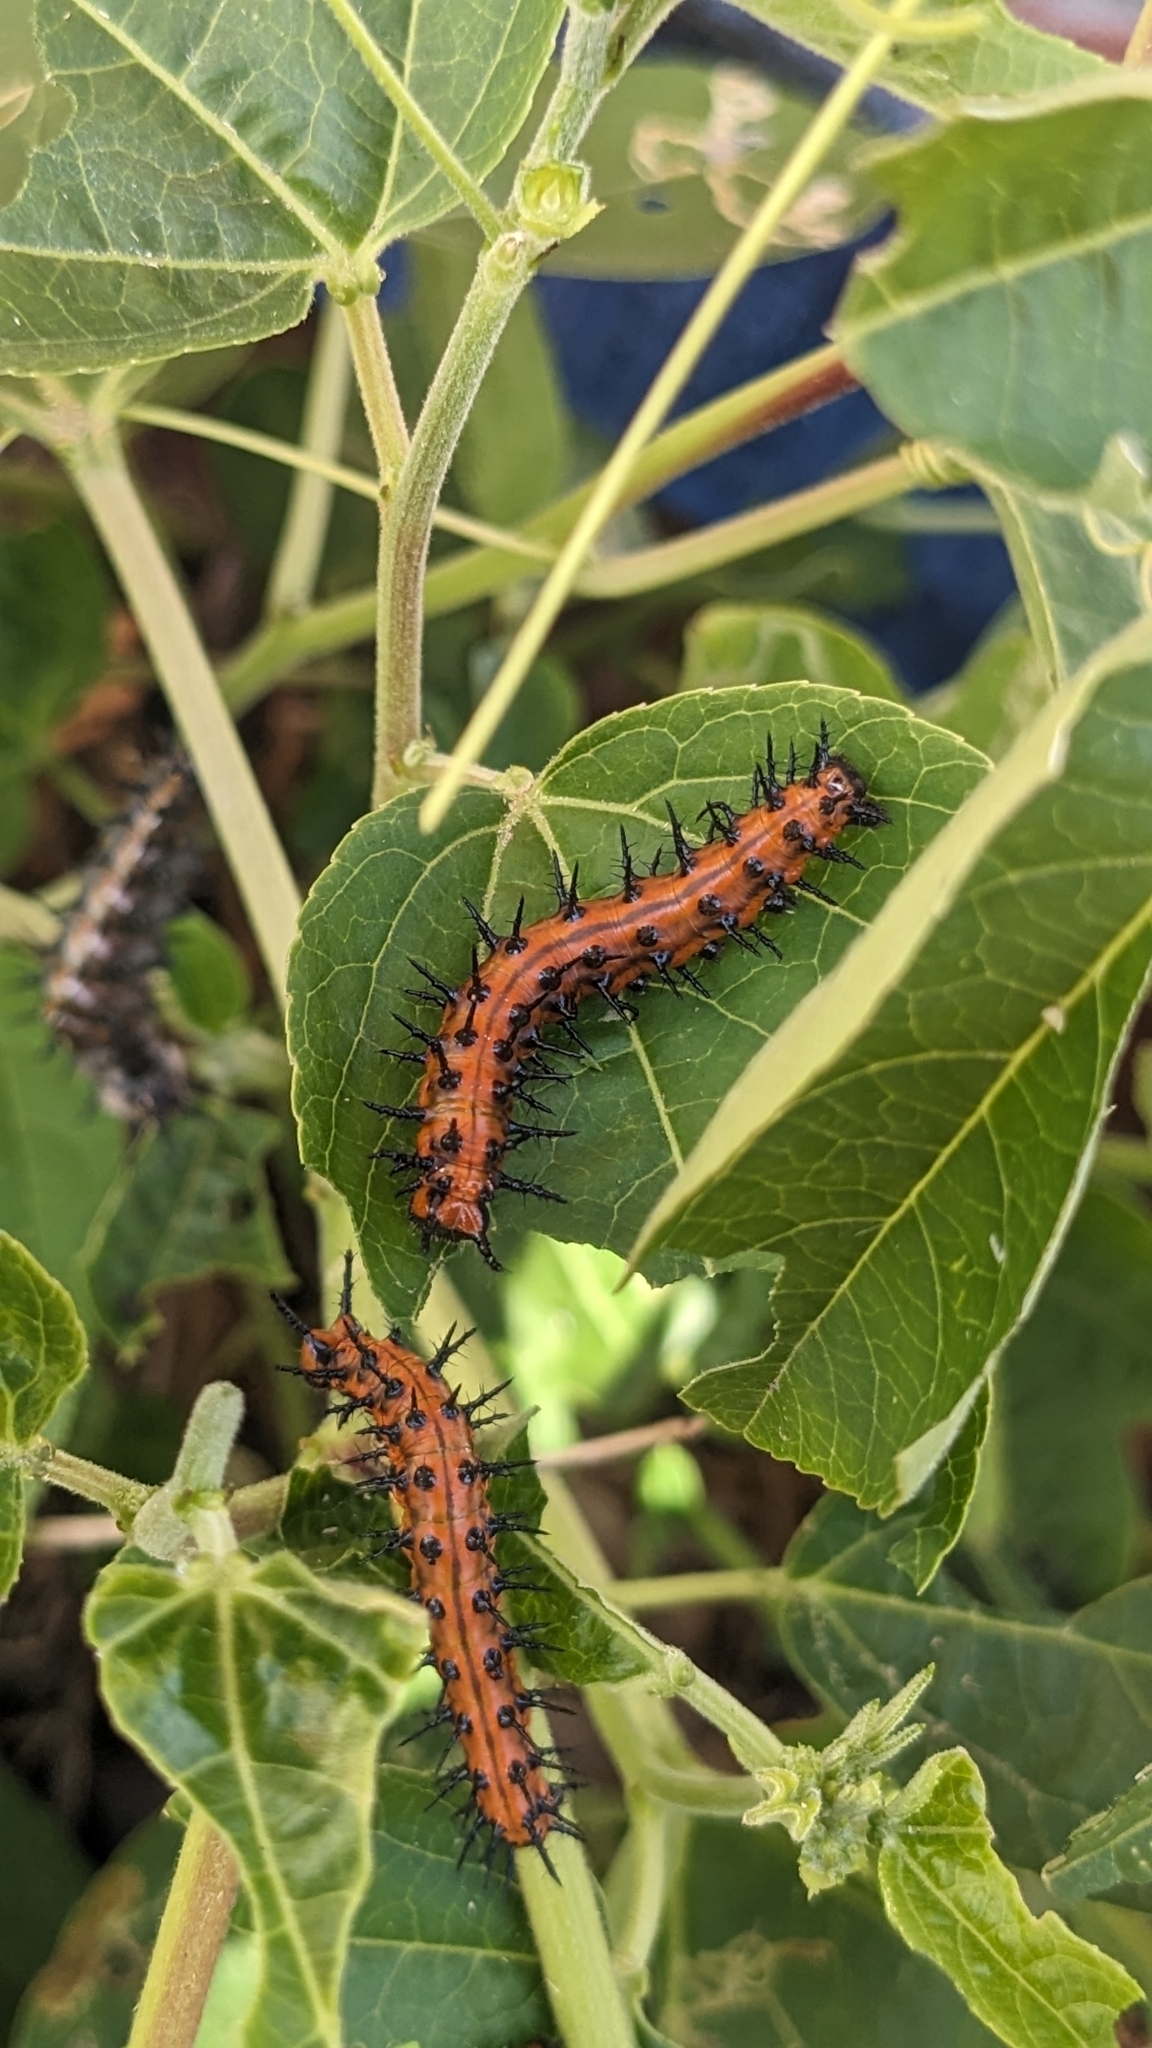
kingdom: Animalia
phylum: Arthropoda
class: Insecta
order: Lepidoptera
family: Nymphalidae
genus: Dione
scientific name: Dione vanillae
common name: Gulf fritillary
